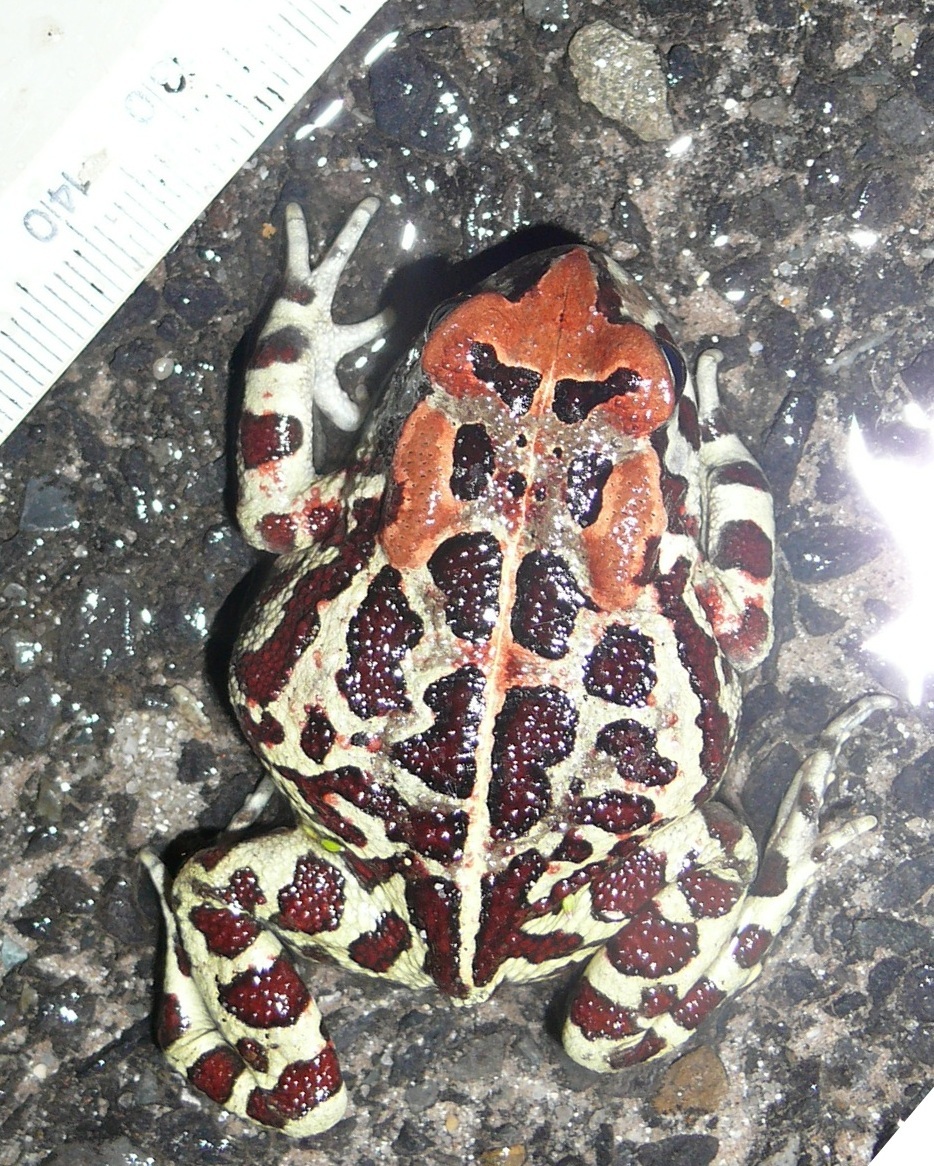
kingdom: Animalia
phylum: Chordata
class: Amphibia
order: Anura
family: Bufonidae
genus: Sclerophrys
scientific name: Sclerophrys pantherina
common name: Panther toad
